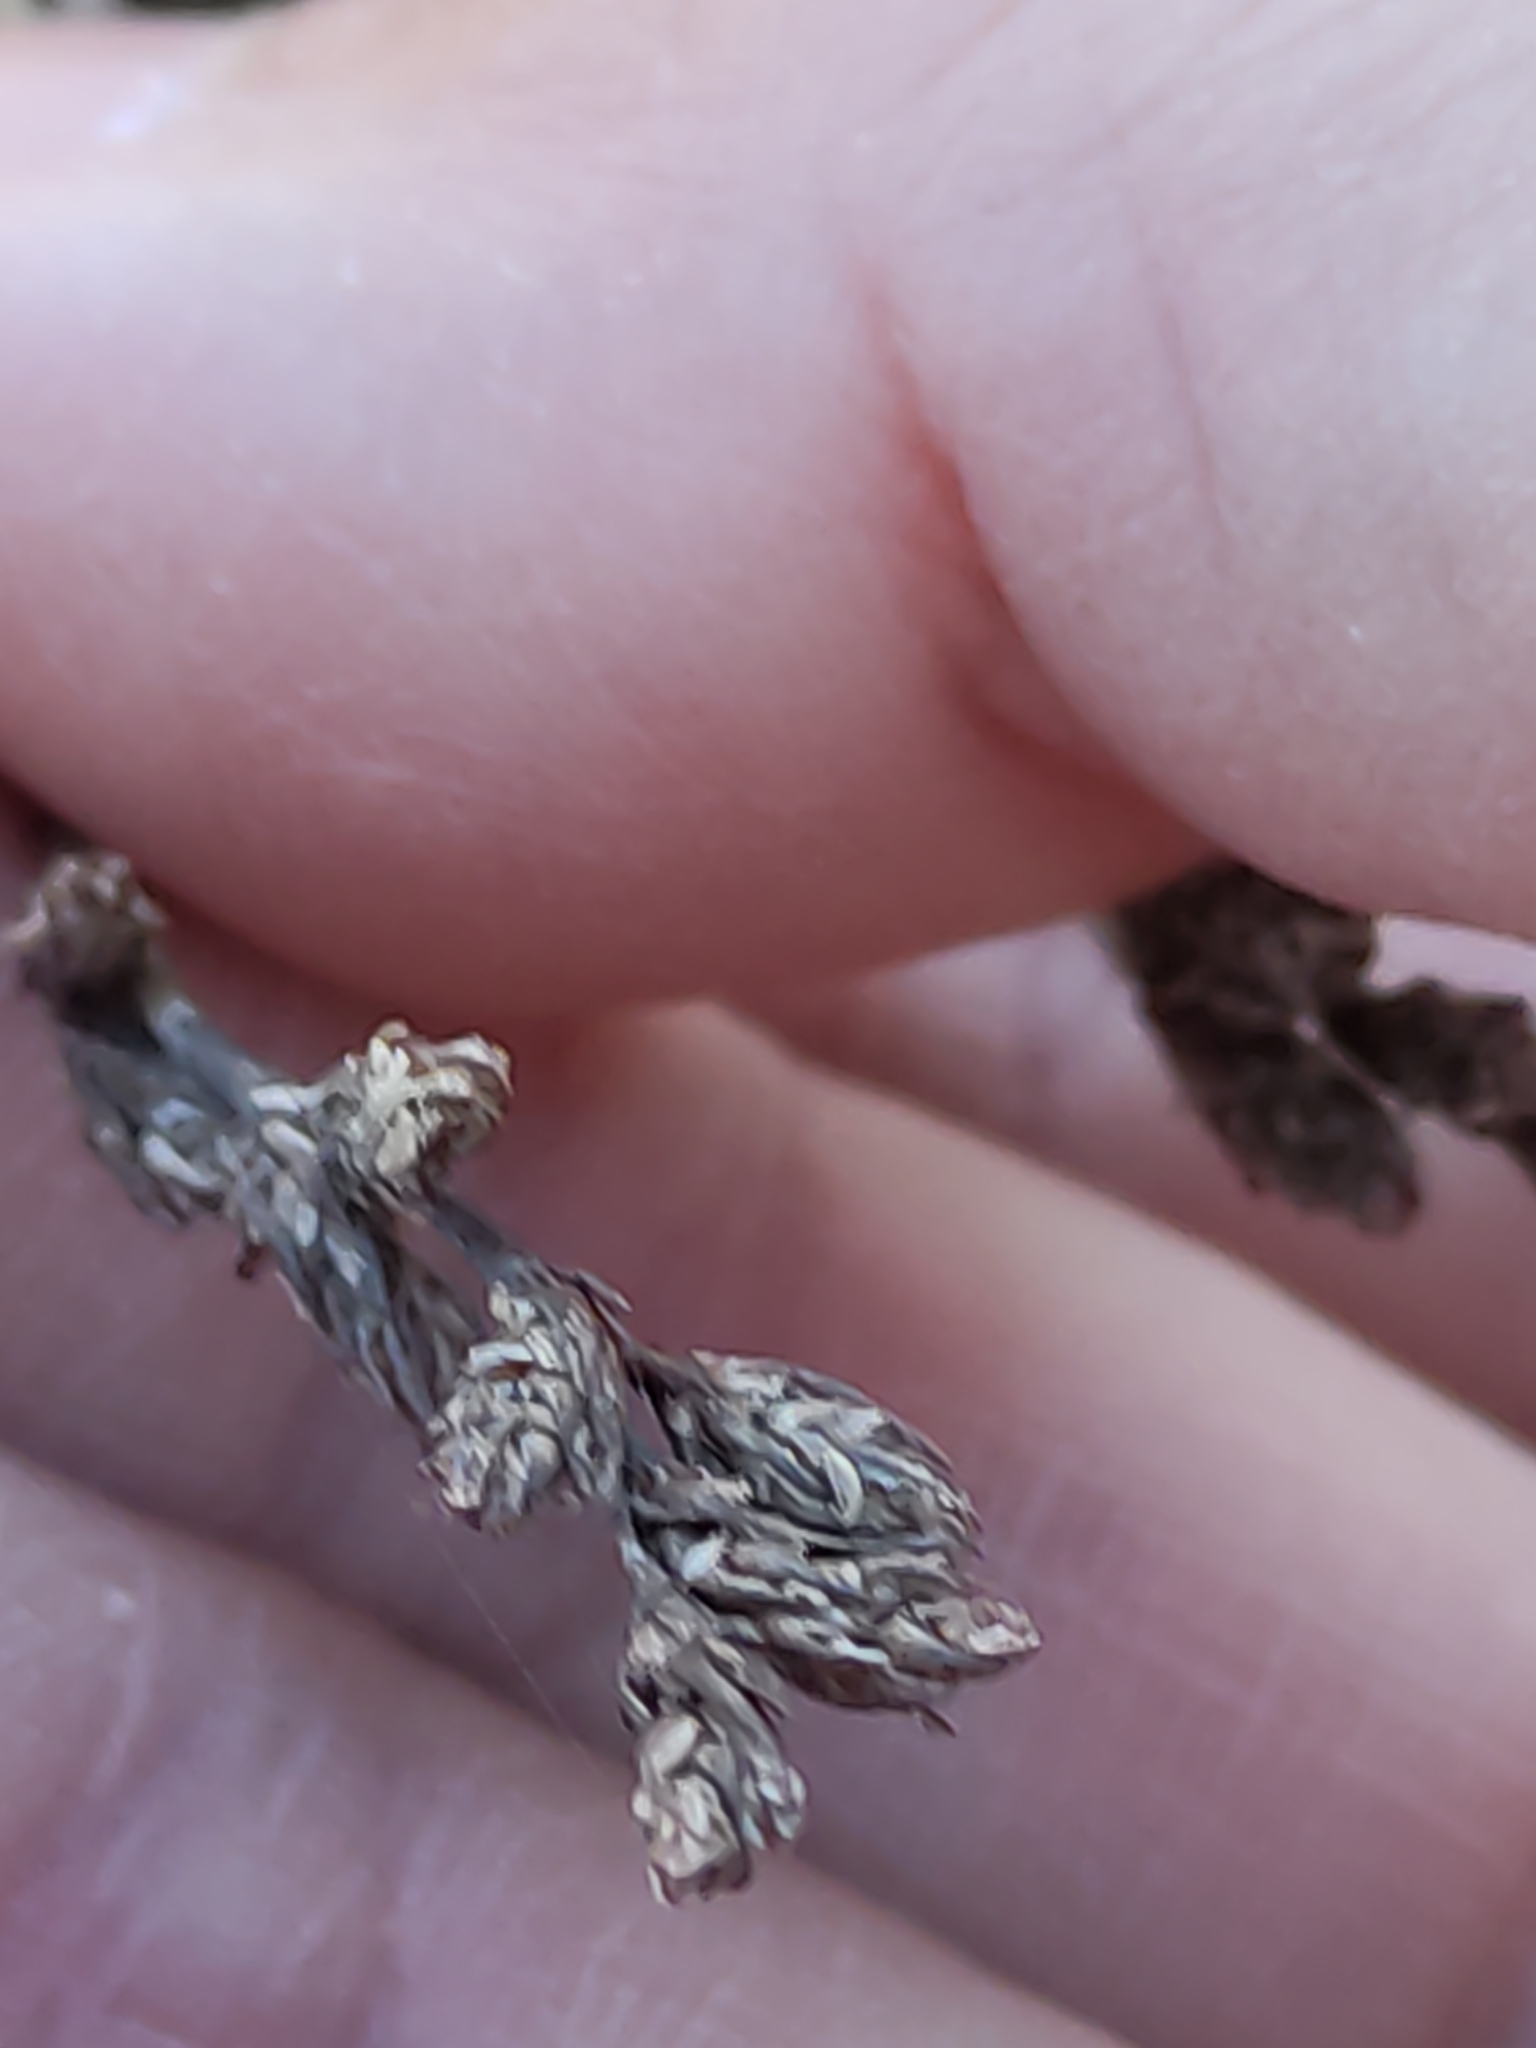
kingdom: Plantae
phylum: Tracheophyta
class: Liliopsida
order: Poales
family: Restionaceae
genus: Apodasmia
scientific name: Apodasmia similis
